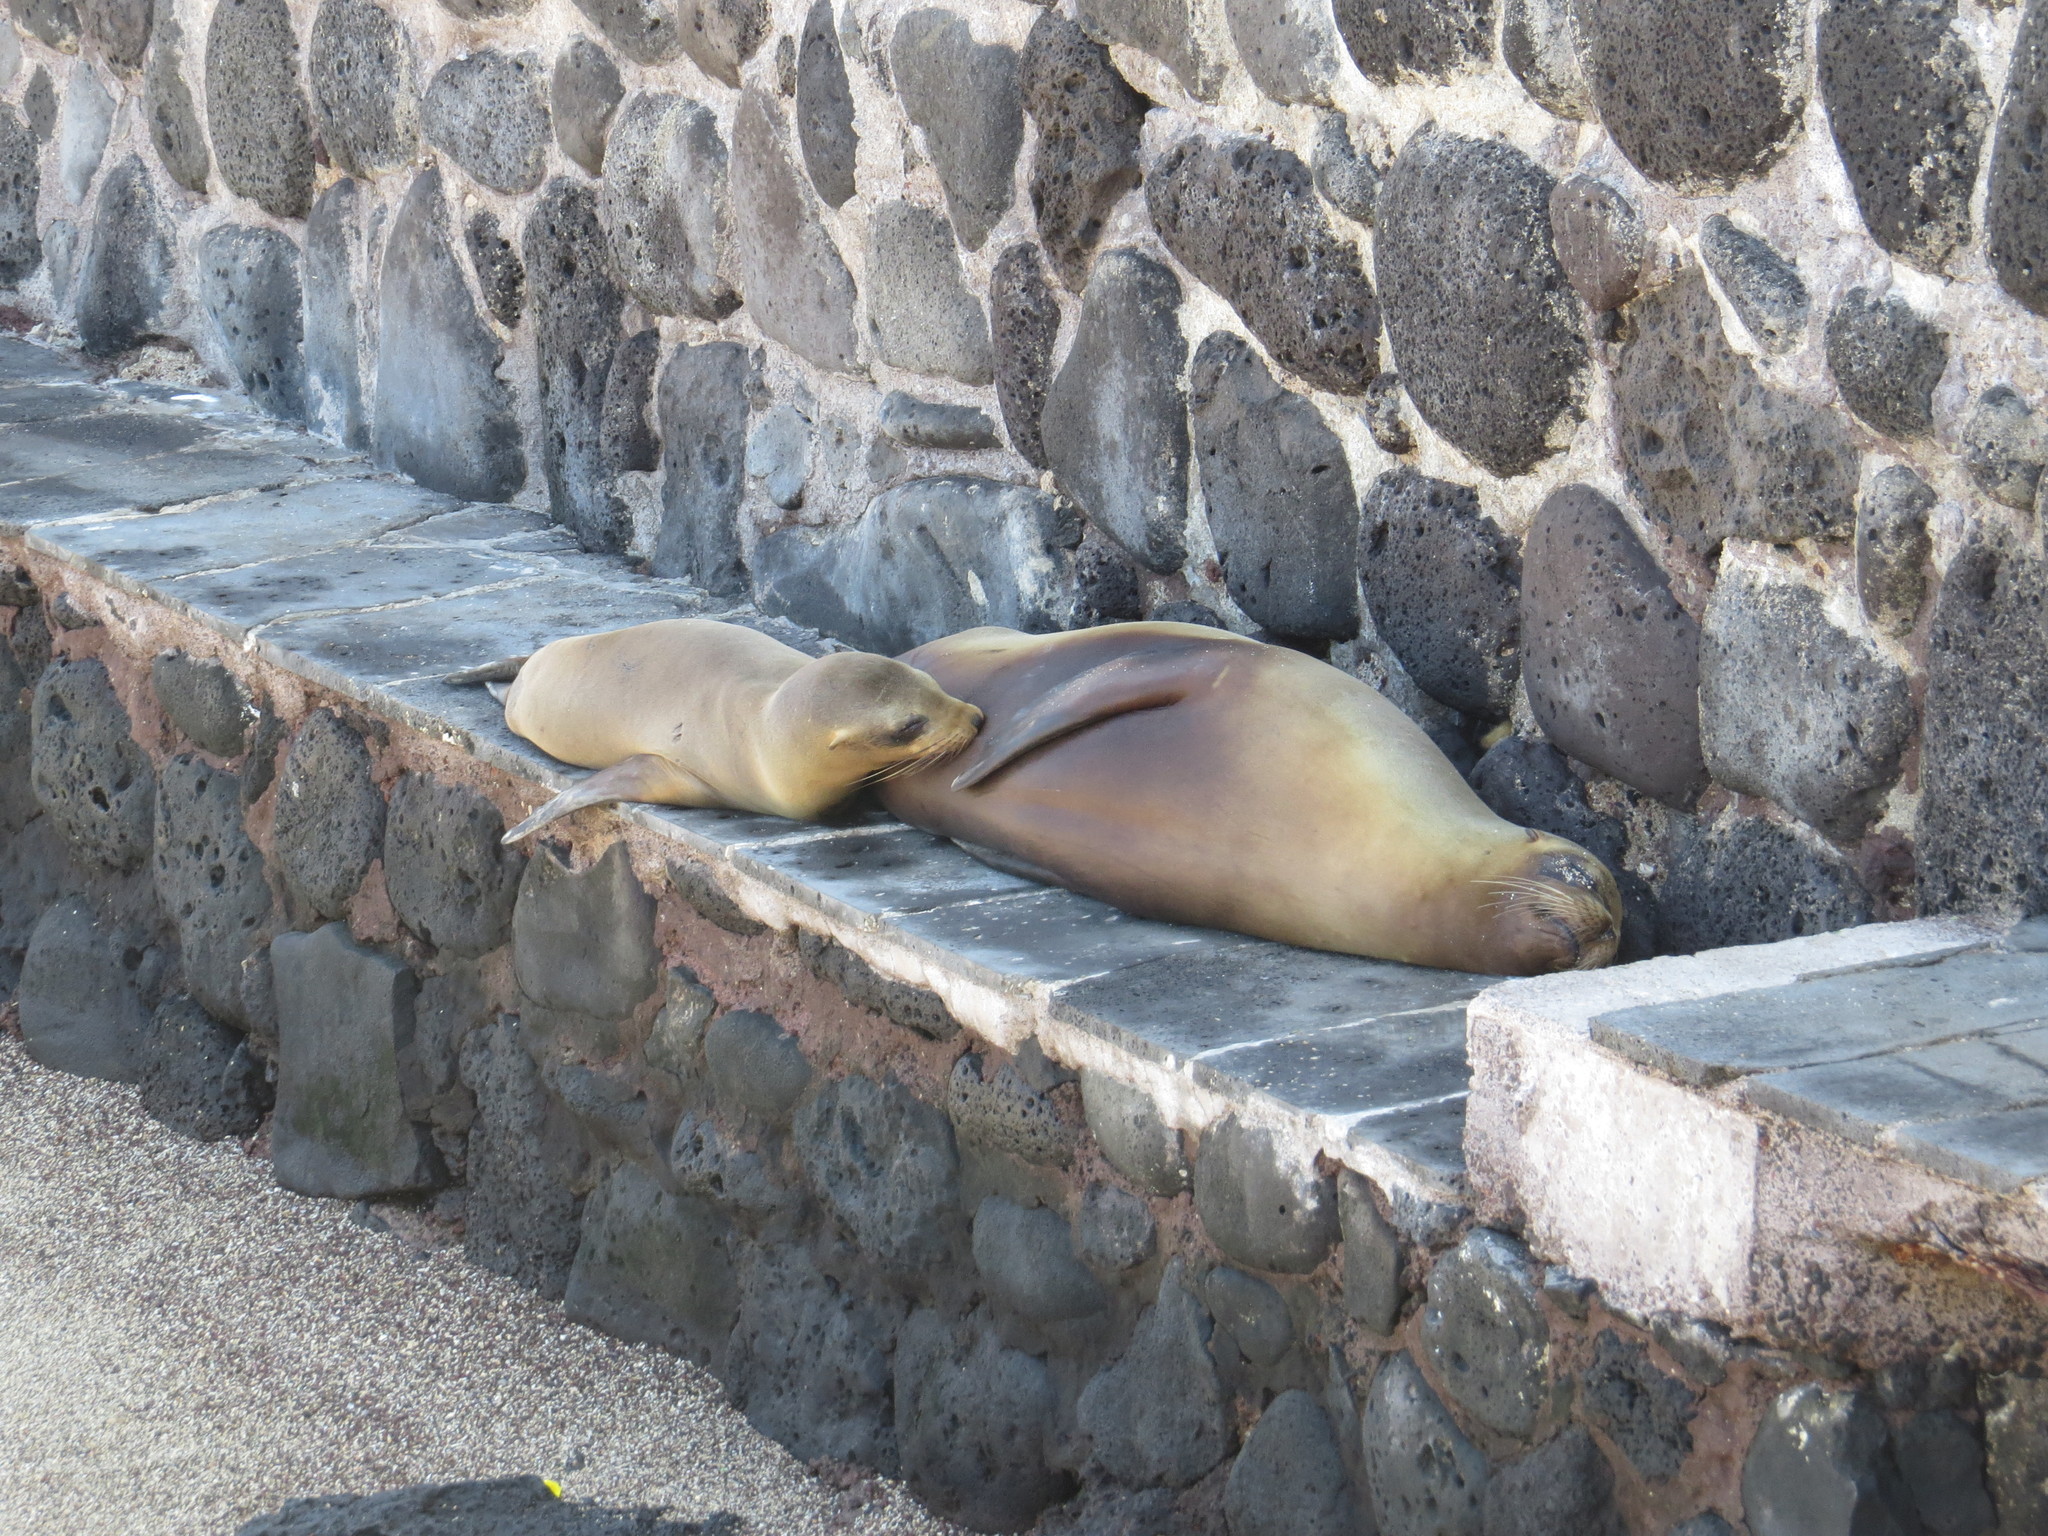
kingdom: Animalia
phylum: Chordata
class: Mammalia
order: Carnivora
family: Otariidae
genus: Zalophus
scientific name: Zalophus wollebaeki
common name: Galapagos sea lion
